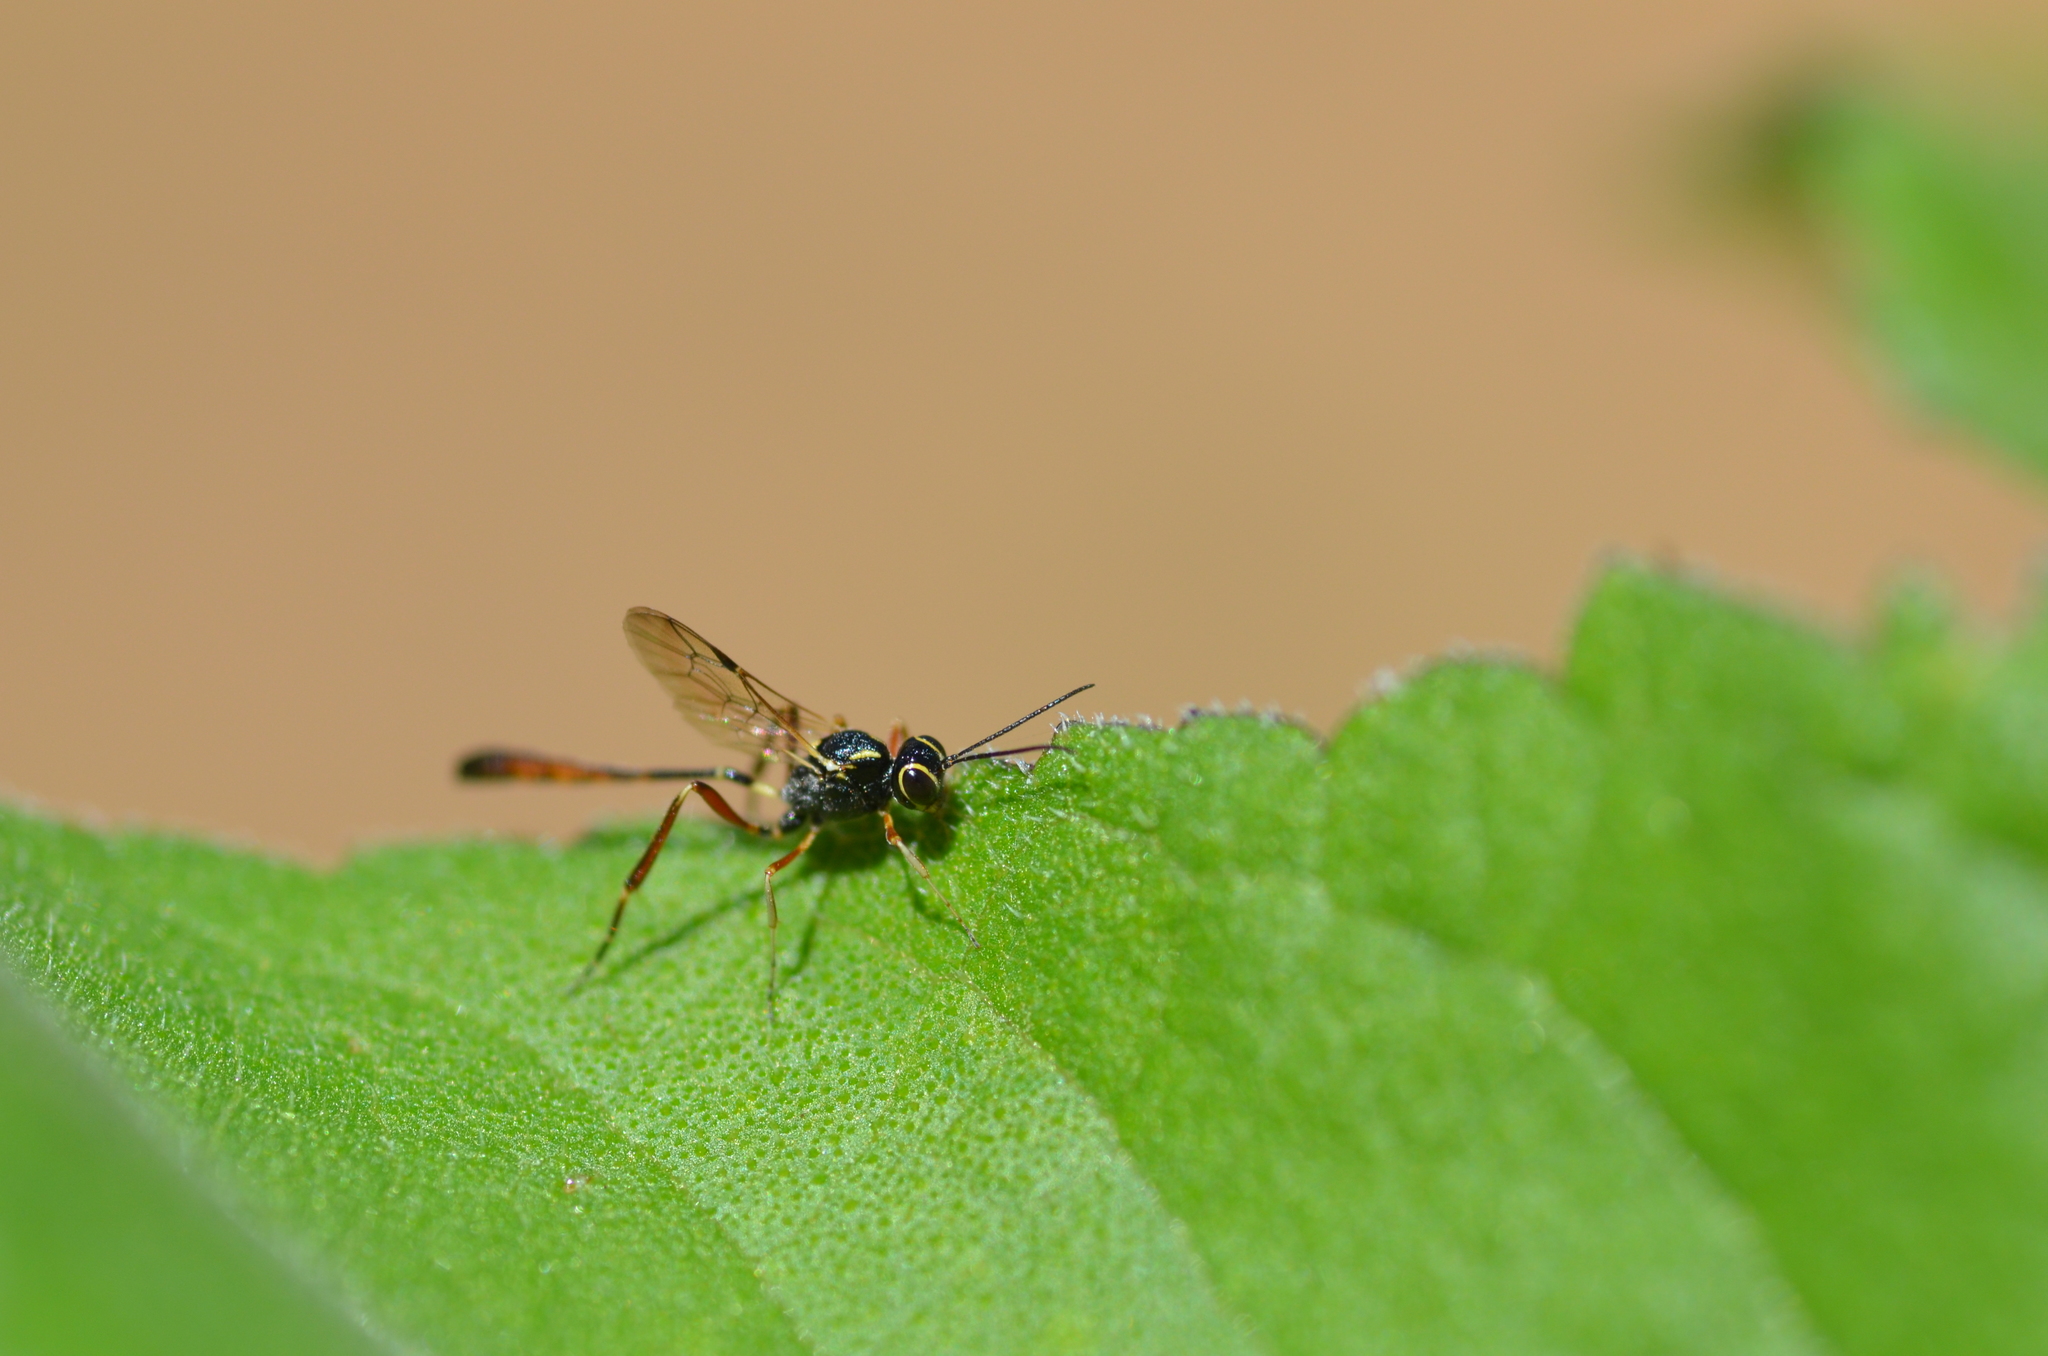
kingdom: Animalia
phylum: Arthropoda
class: Insecta
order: Hymenoptera
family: Ichneumonidae
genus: Anomalon
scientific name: Anomalon
